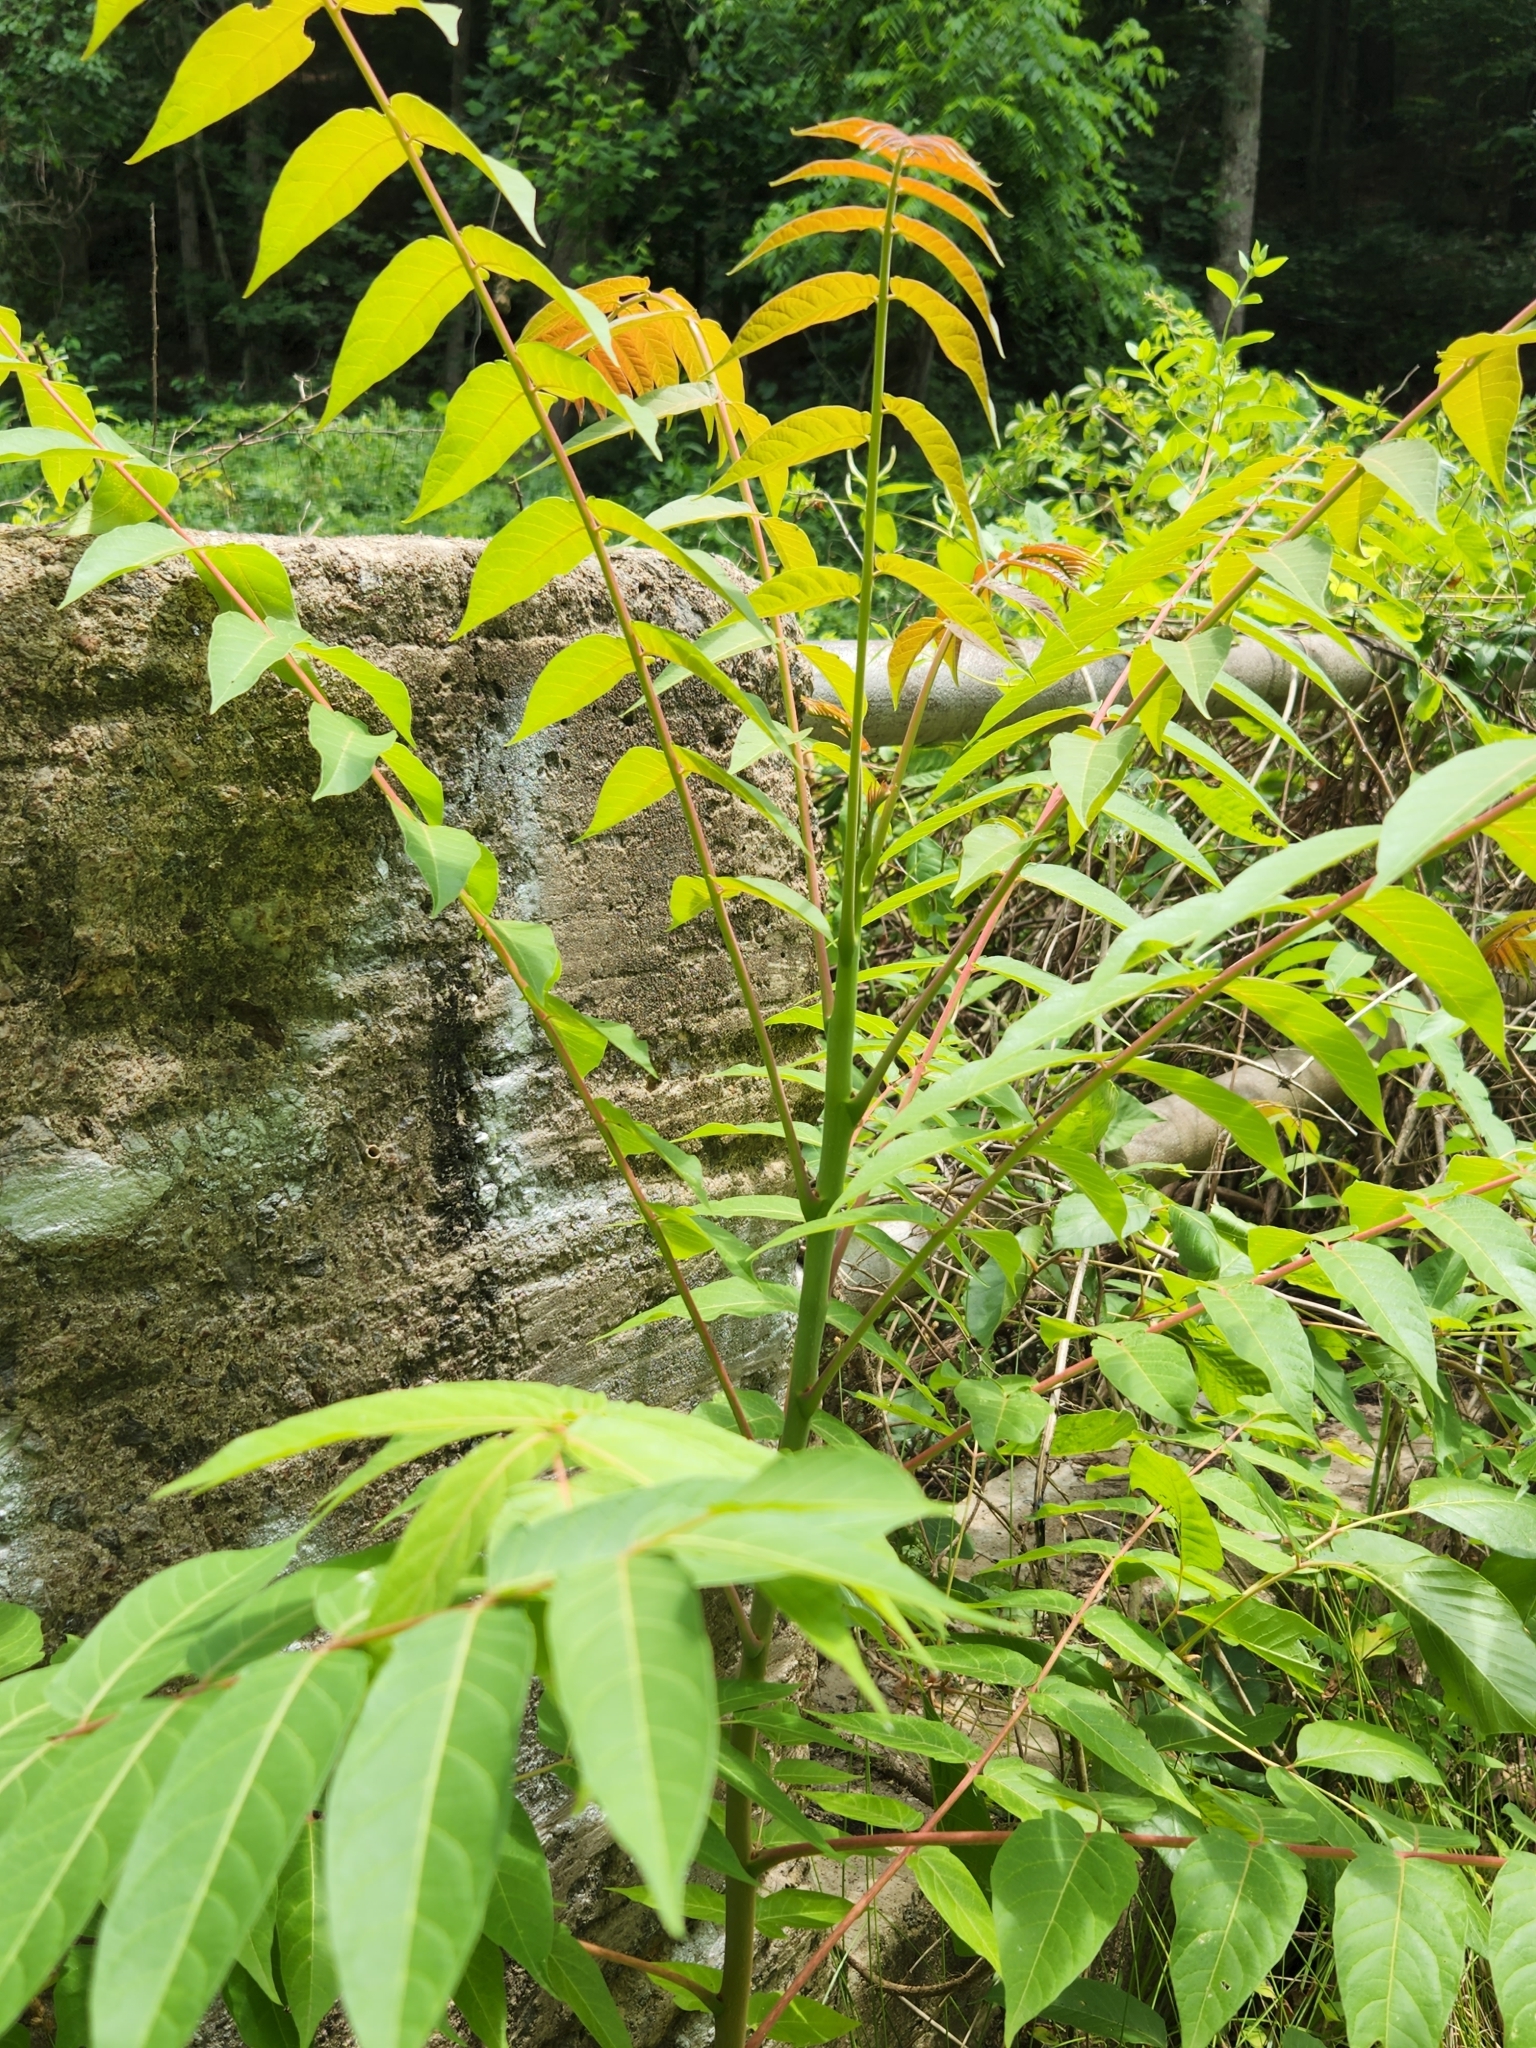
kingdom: Plantae
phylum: Tracheophyta
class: Magnoliopsida
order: Sapindales
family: Simaroubaceae
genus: Ailanthus
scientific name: Ailanthus altissima
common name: Tree-of-heaven
